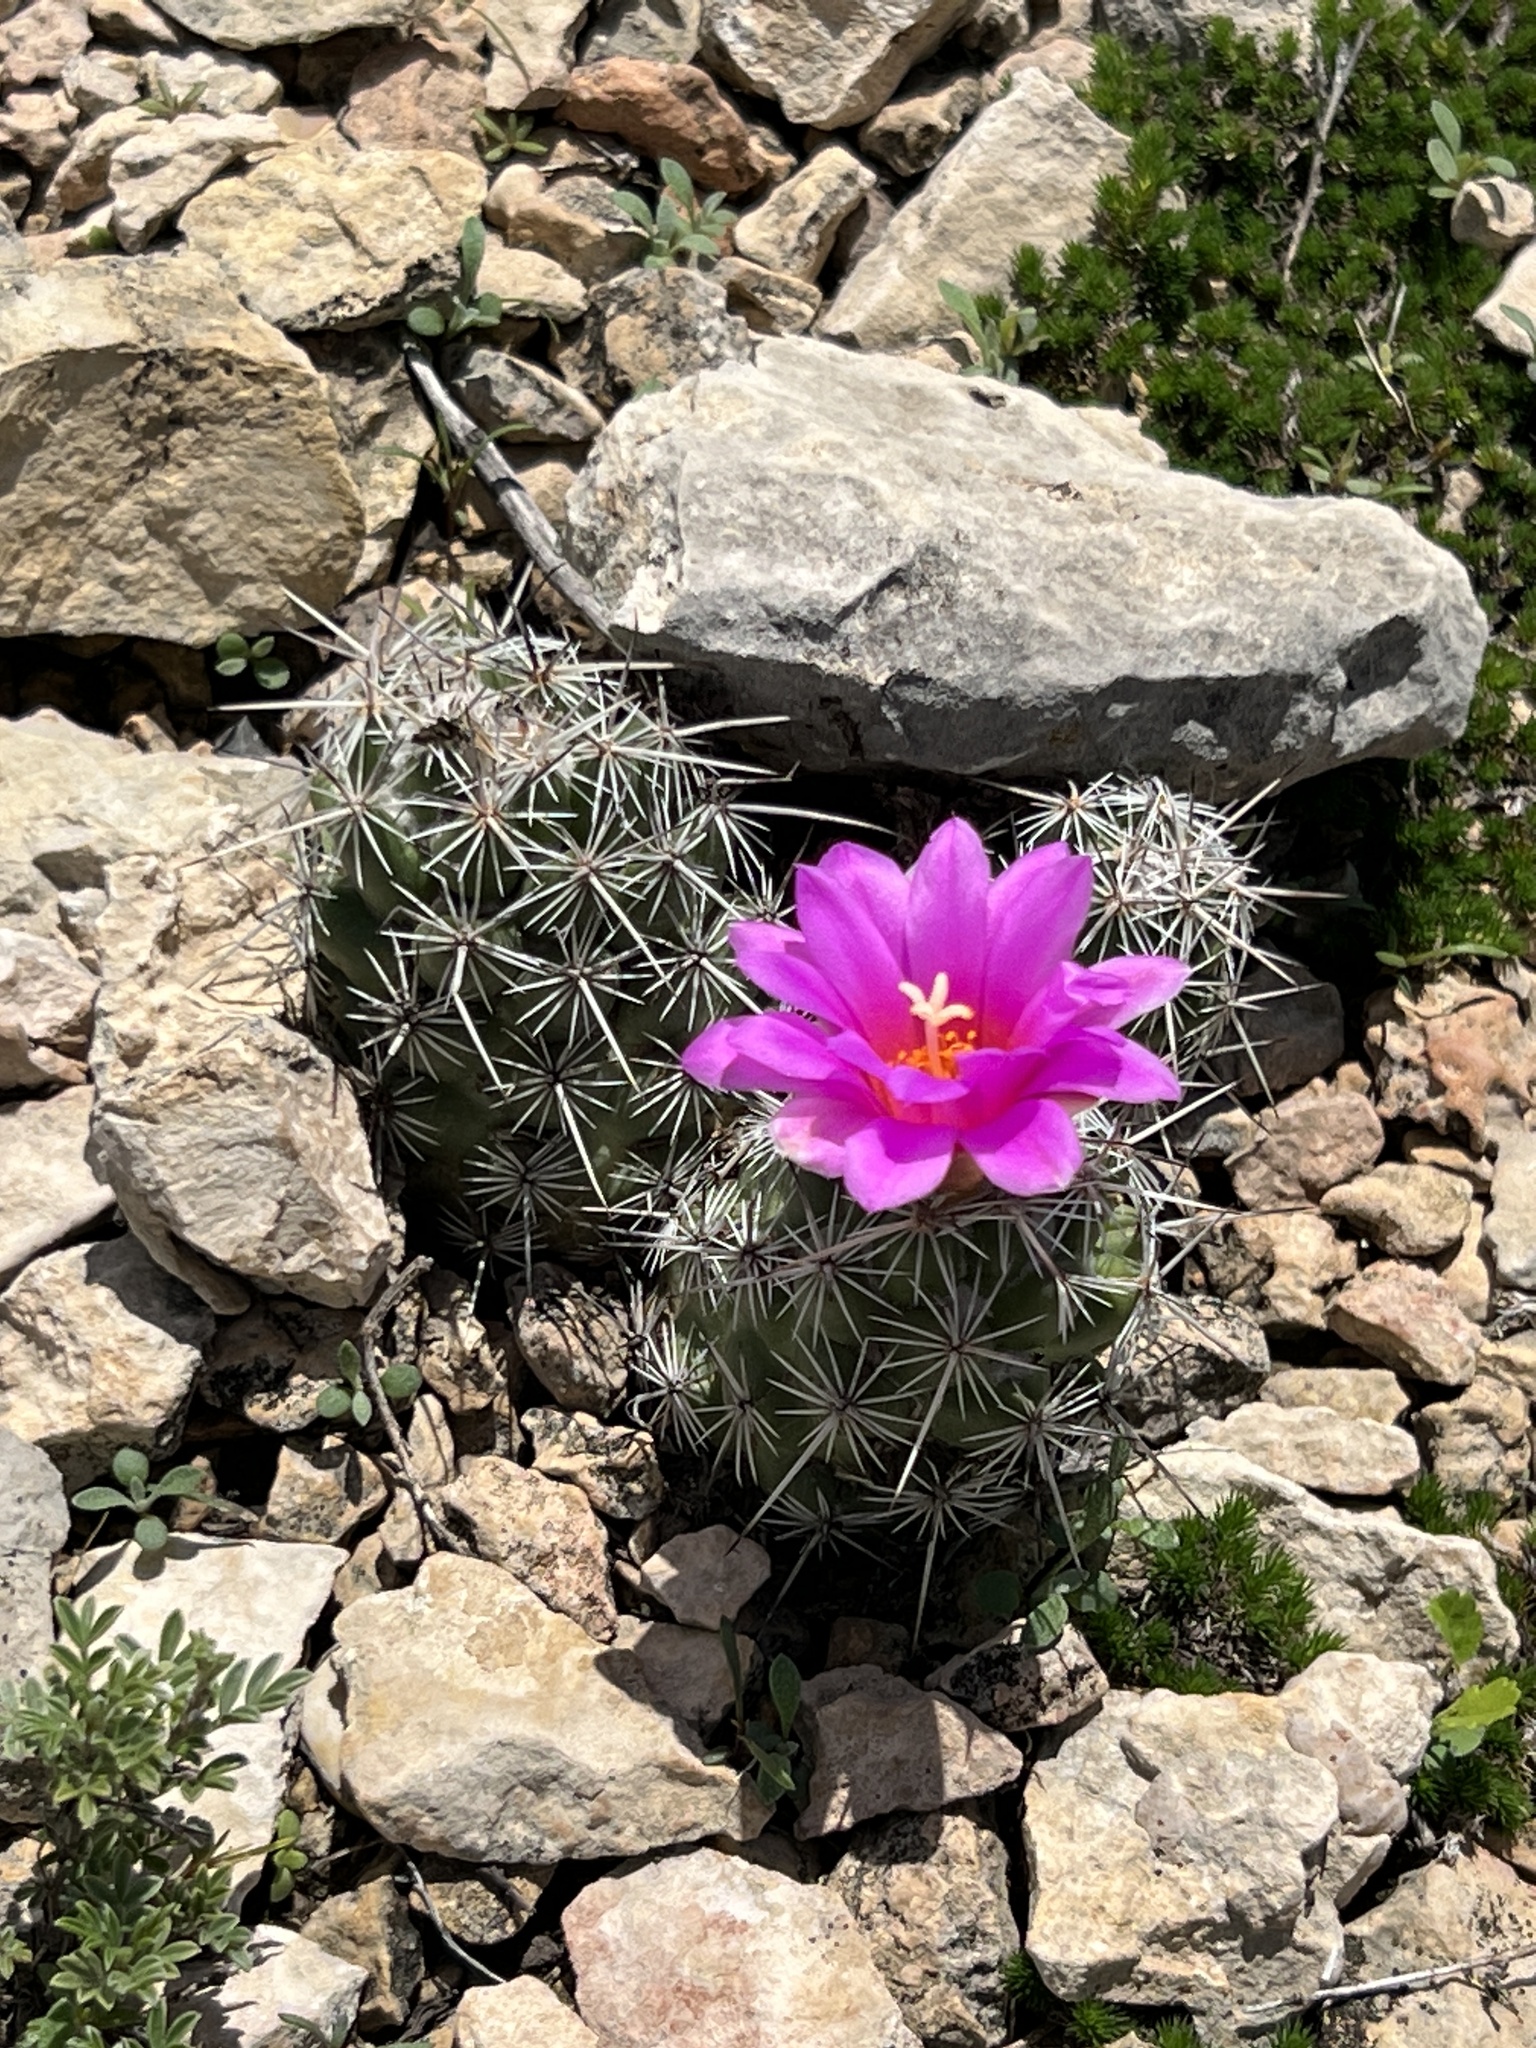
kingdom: Plantae
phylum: Tracheophyta
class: Magnoliopsida
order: Caryophyllales
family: Cactaceae
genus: Cochemiea
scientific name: Cochemiea conoidea
